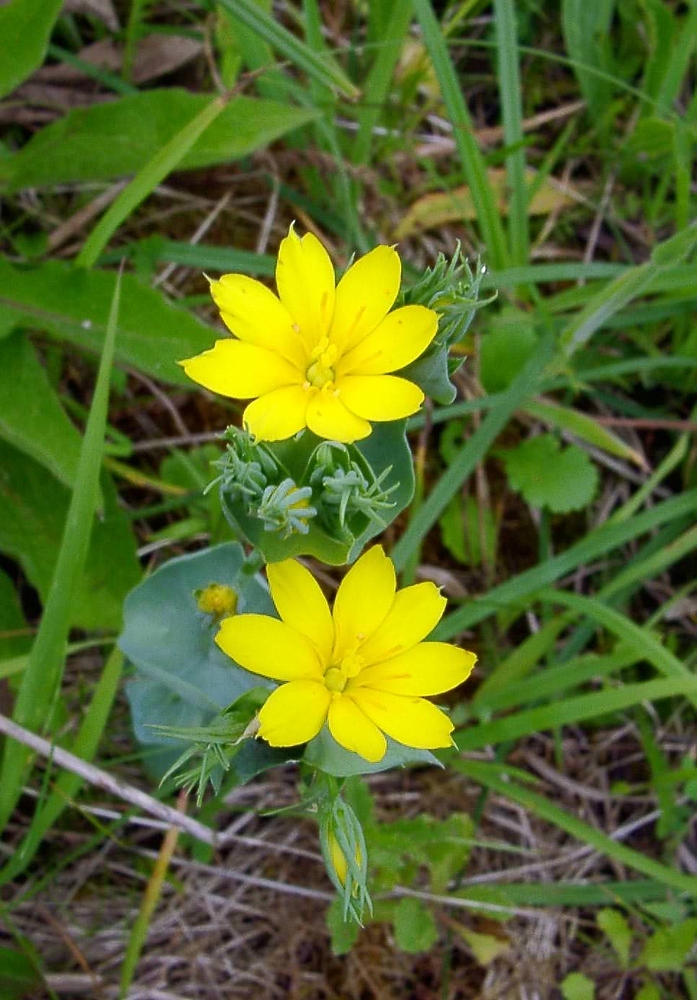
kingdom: Plantae
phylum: Tracheophyta
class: Magnoliopsida
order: Gentianales
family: Gentianaceae
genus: Blackstonia
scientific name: Blackstonia perfoliata
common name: Yellow-wort
